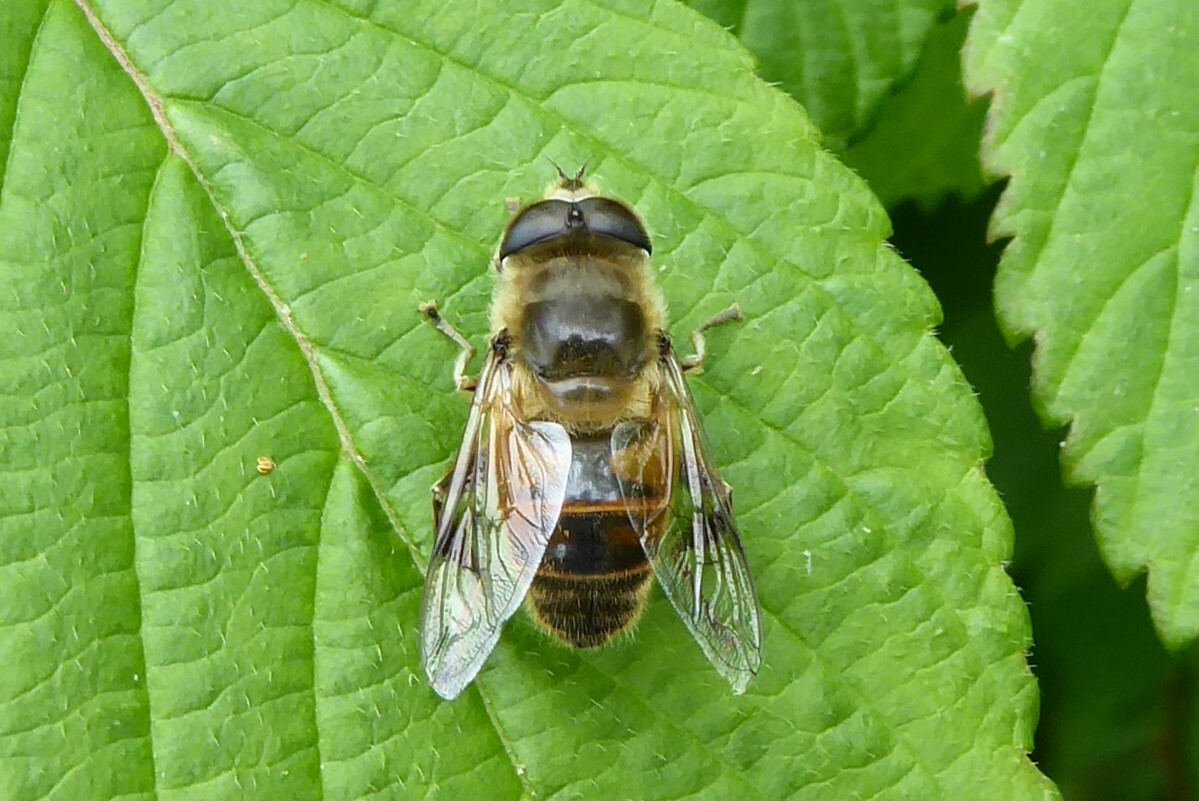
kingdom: Animalia
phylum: Arthropoda
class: Insecta
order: Diptera
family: Syrphidae
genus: Eristalis
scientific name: Eristalis tenax
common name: Drone fly
